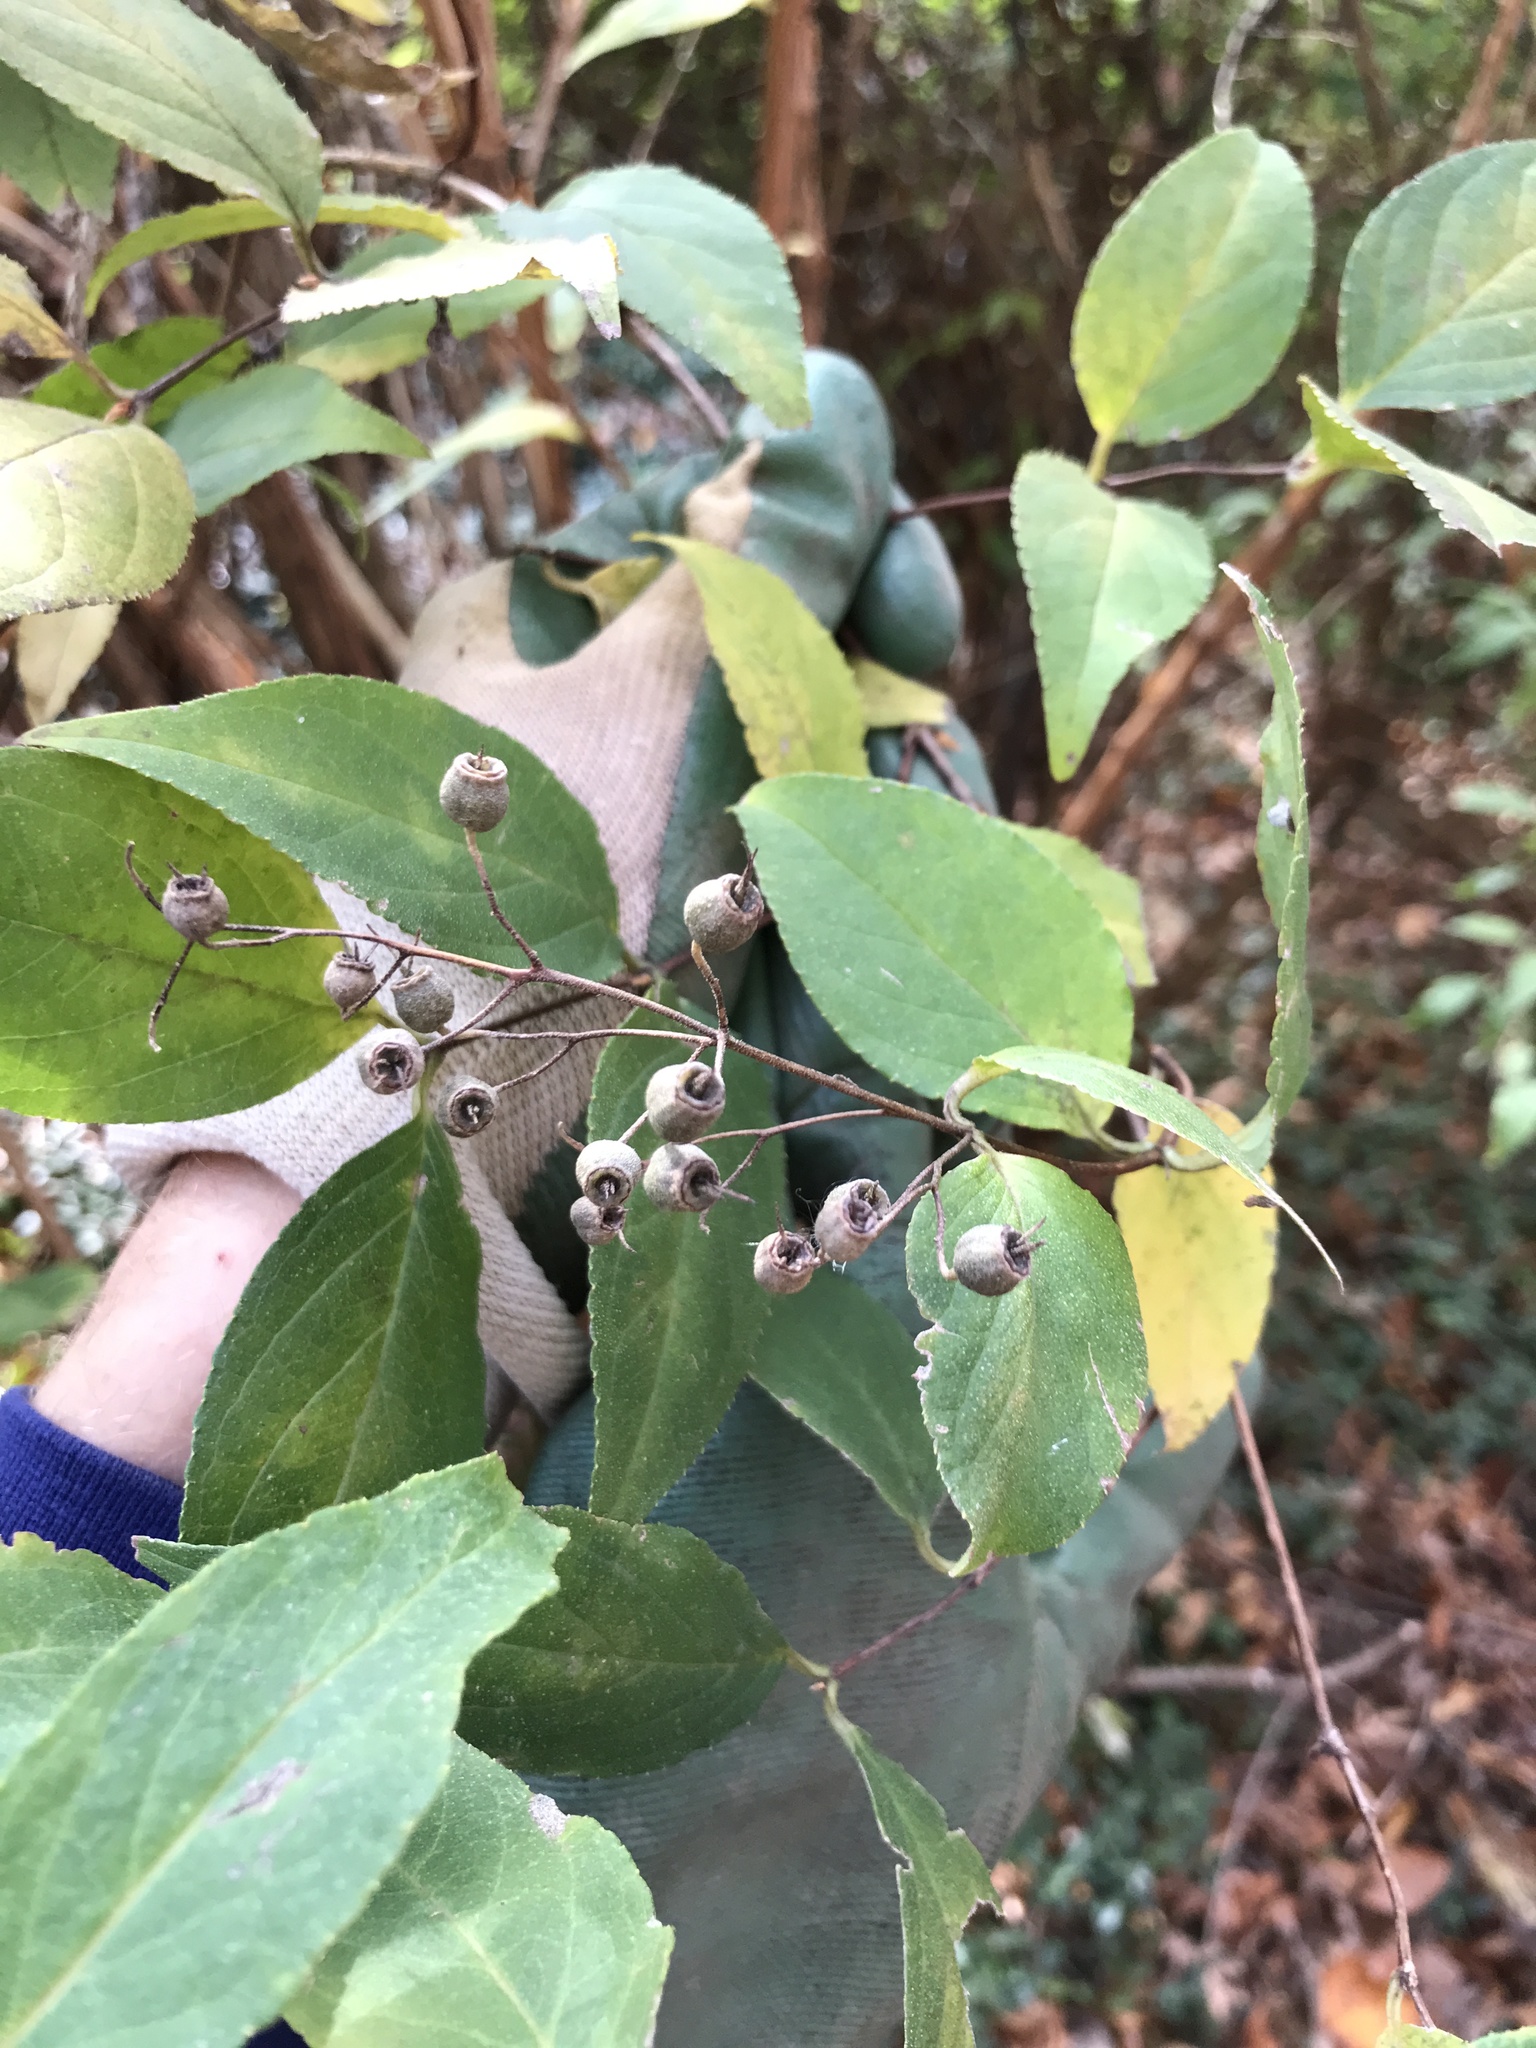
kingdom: Plantae
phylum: Tracheophyta
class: Magnoliopsida
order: Cornales
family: Hydrangeaceae
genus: Deutzia
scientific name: Deutzia crenata
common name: Deutzia
